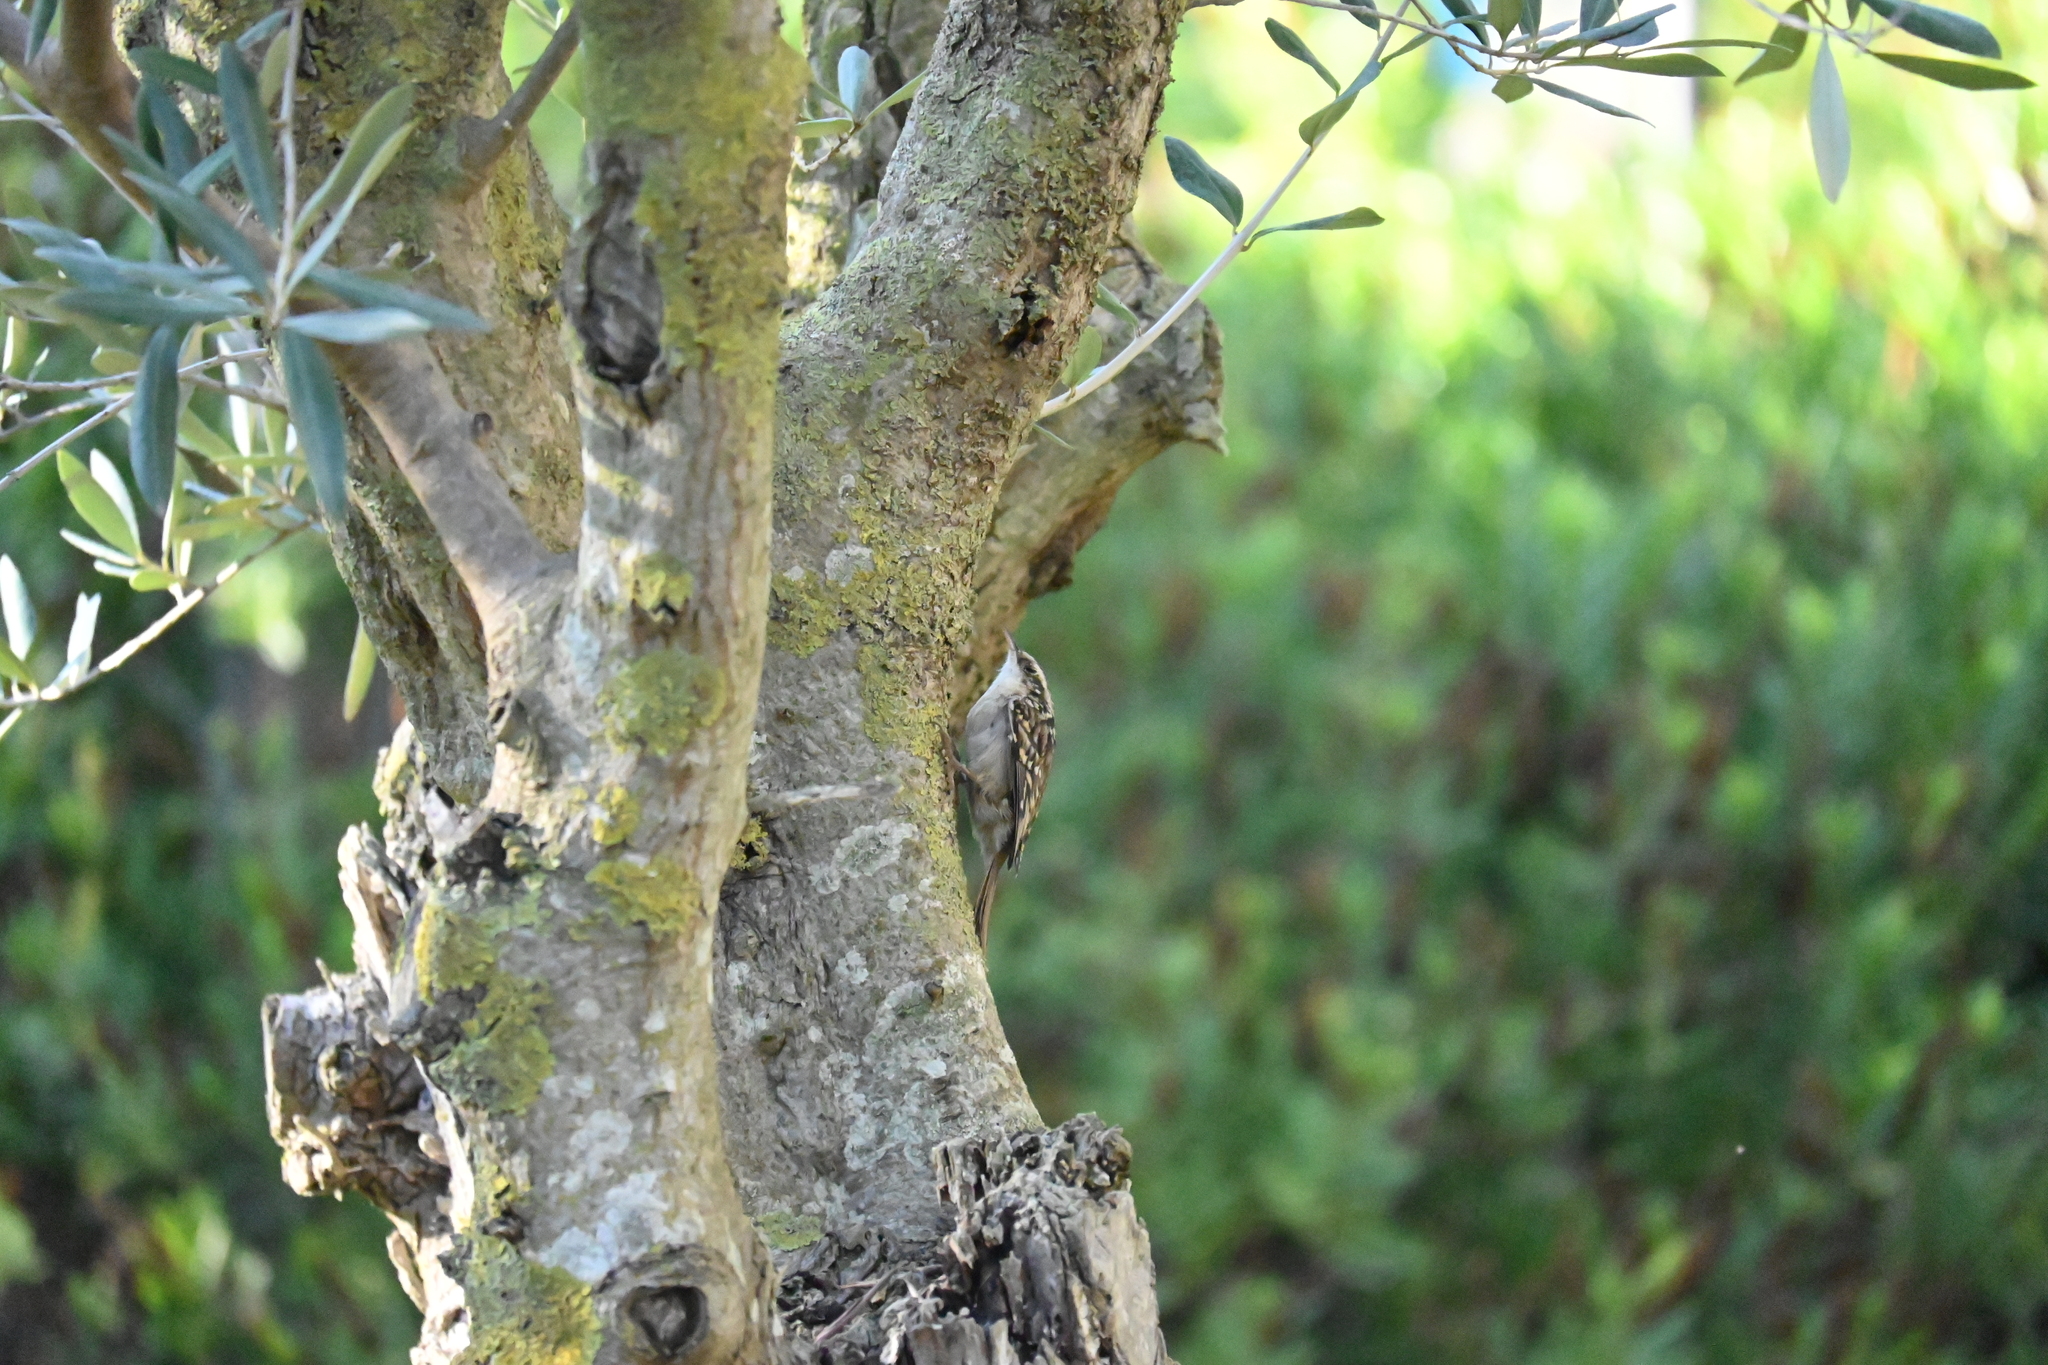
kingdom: Animalia
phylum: Chordata
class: Aves
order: Passeriformes
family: Certhiidae
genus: Certhia
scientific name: Certhia brachydactyla
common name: Short-toed treecreeper
